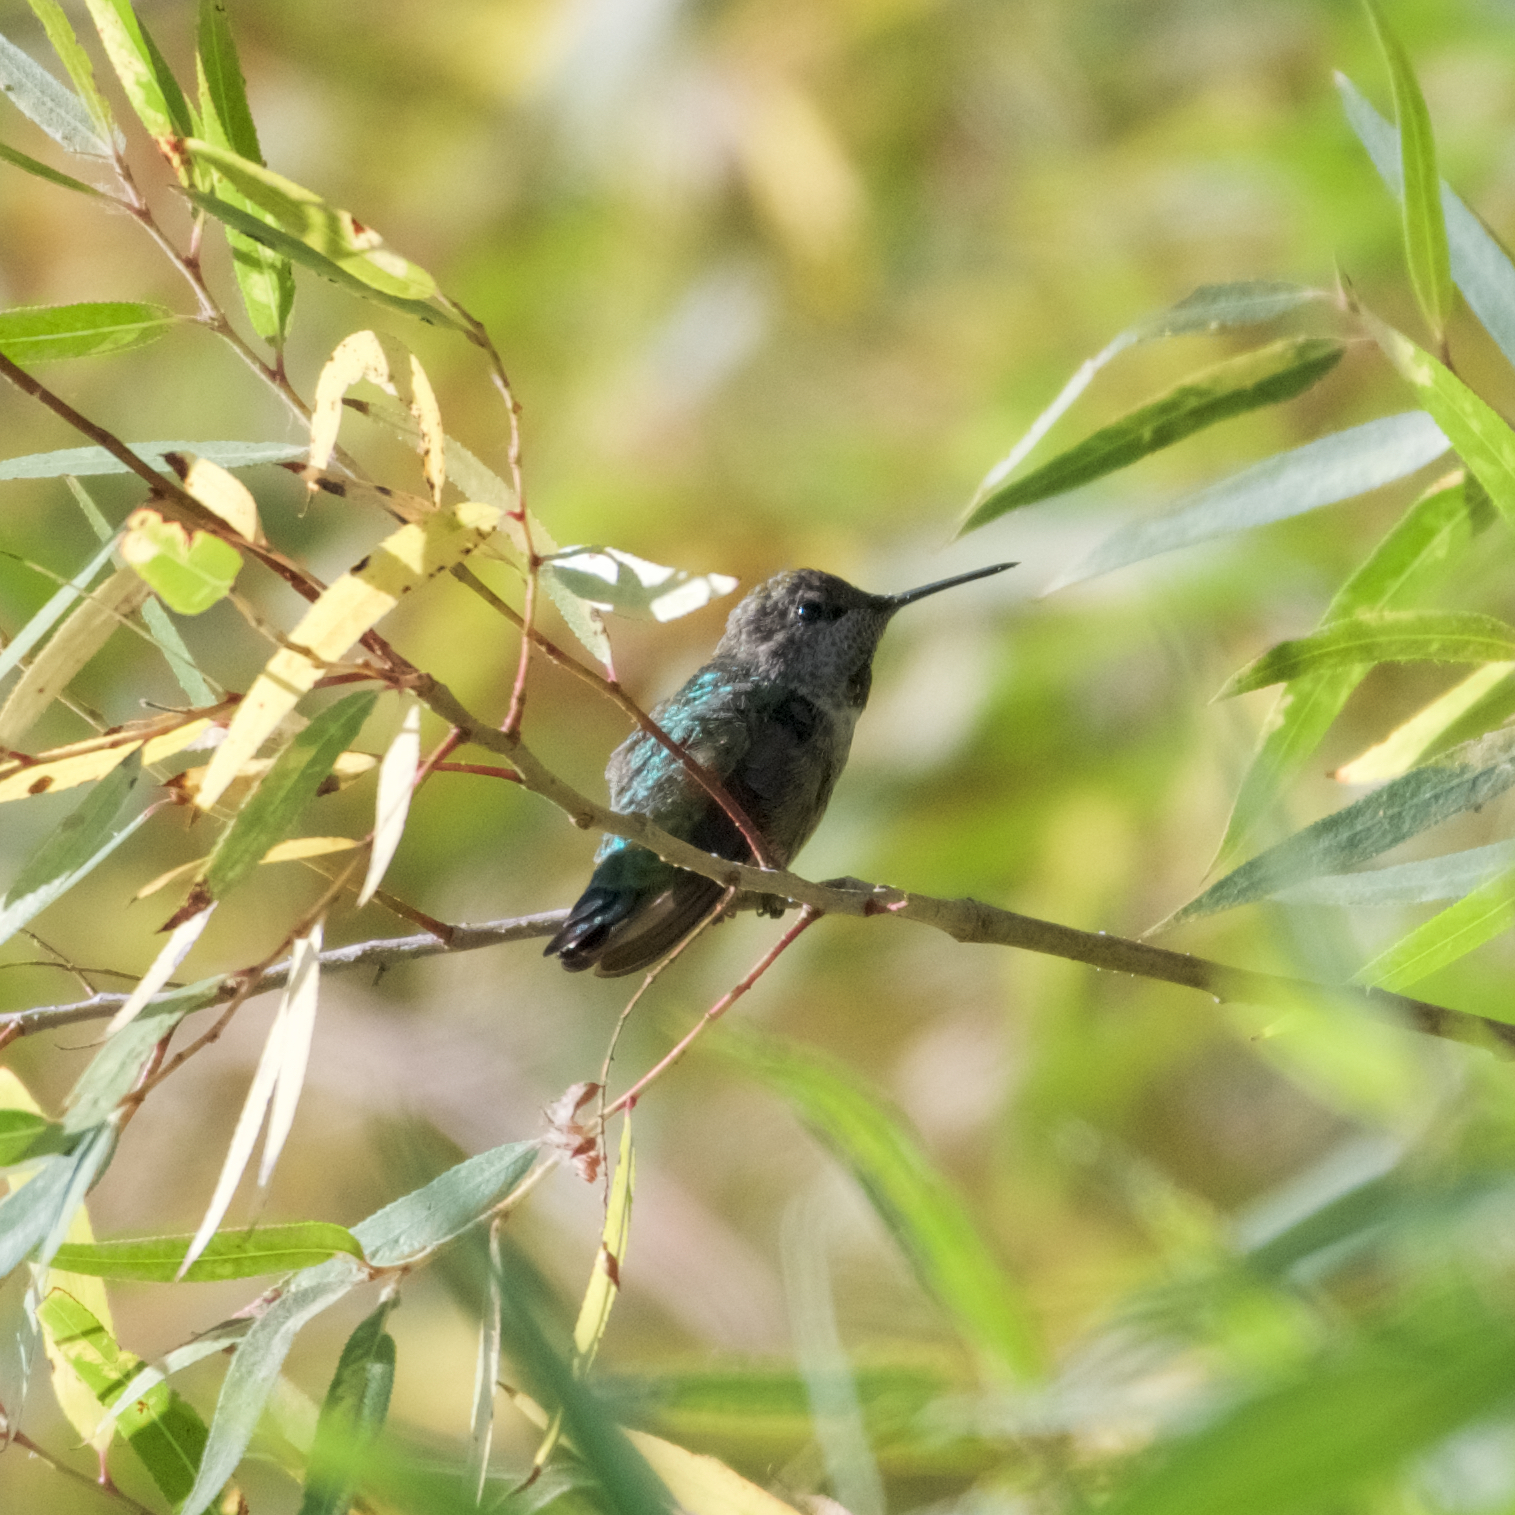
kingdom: Animalia
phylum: Chordata
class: Aves
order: Apodiformes
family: Trochilidae
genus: Calypte
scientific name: Calypte anna
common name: Anna's hummingbird
